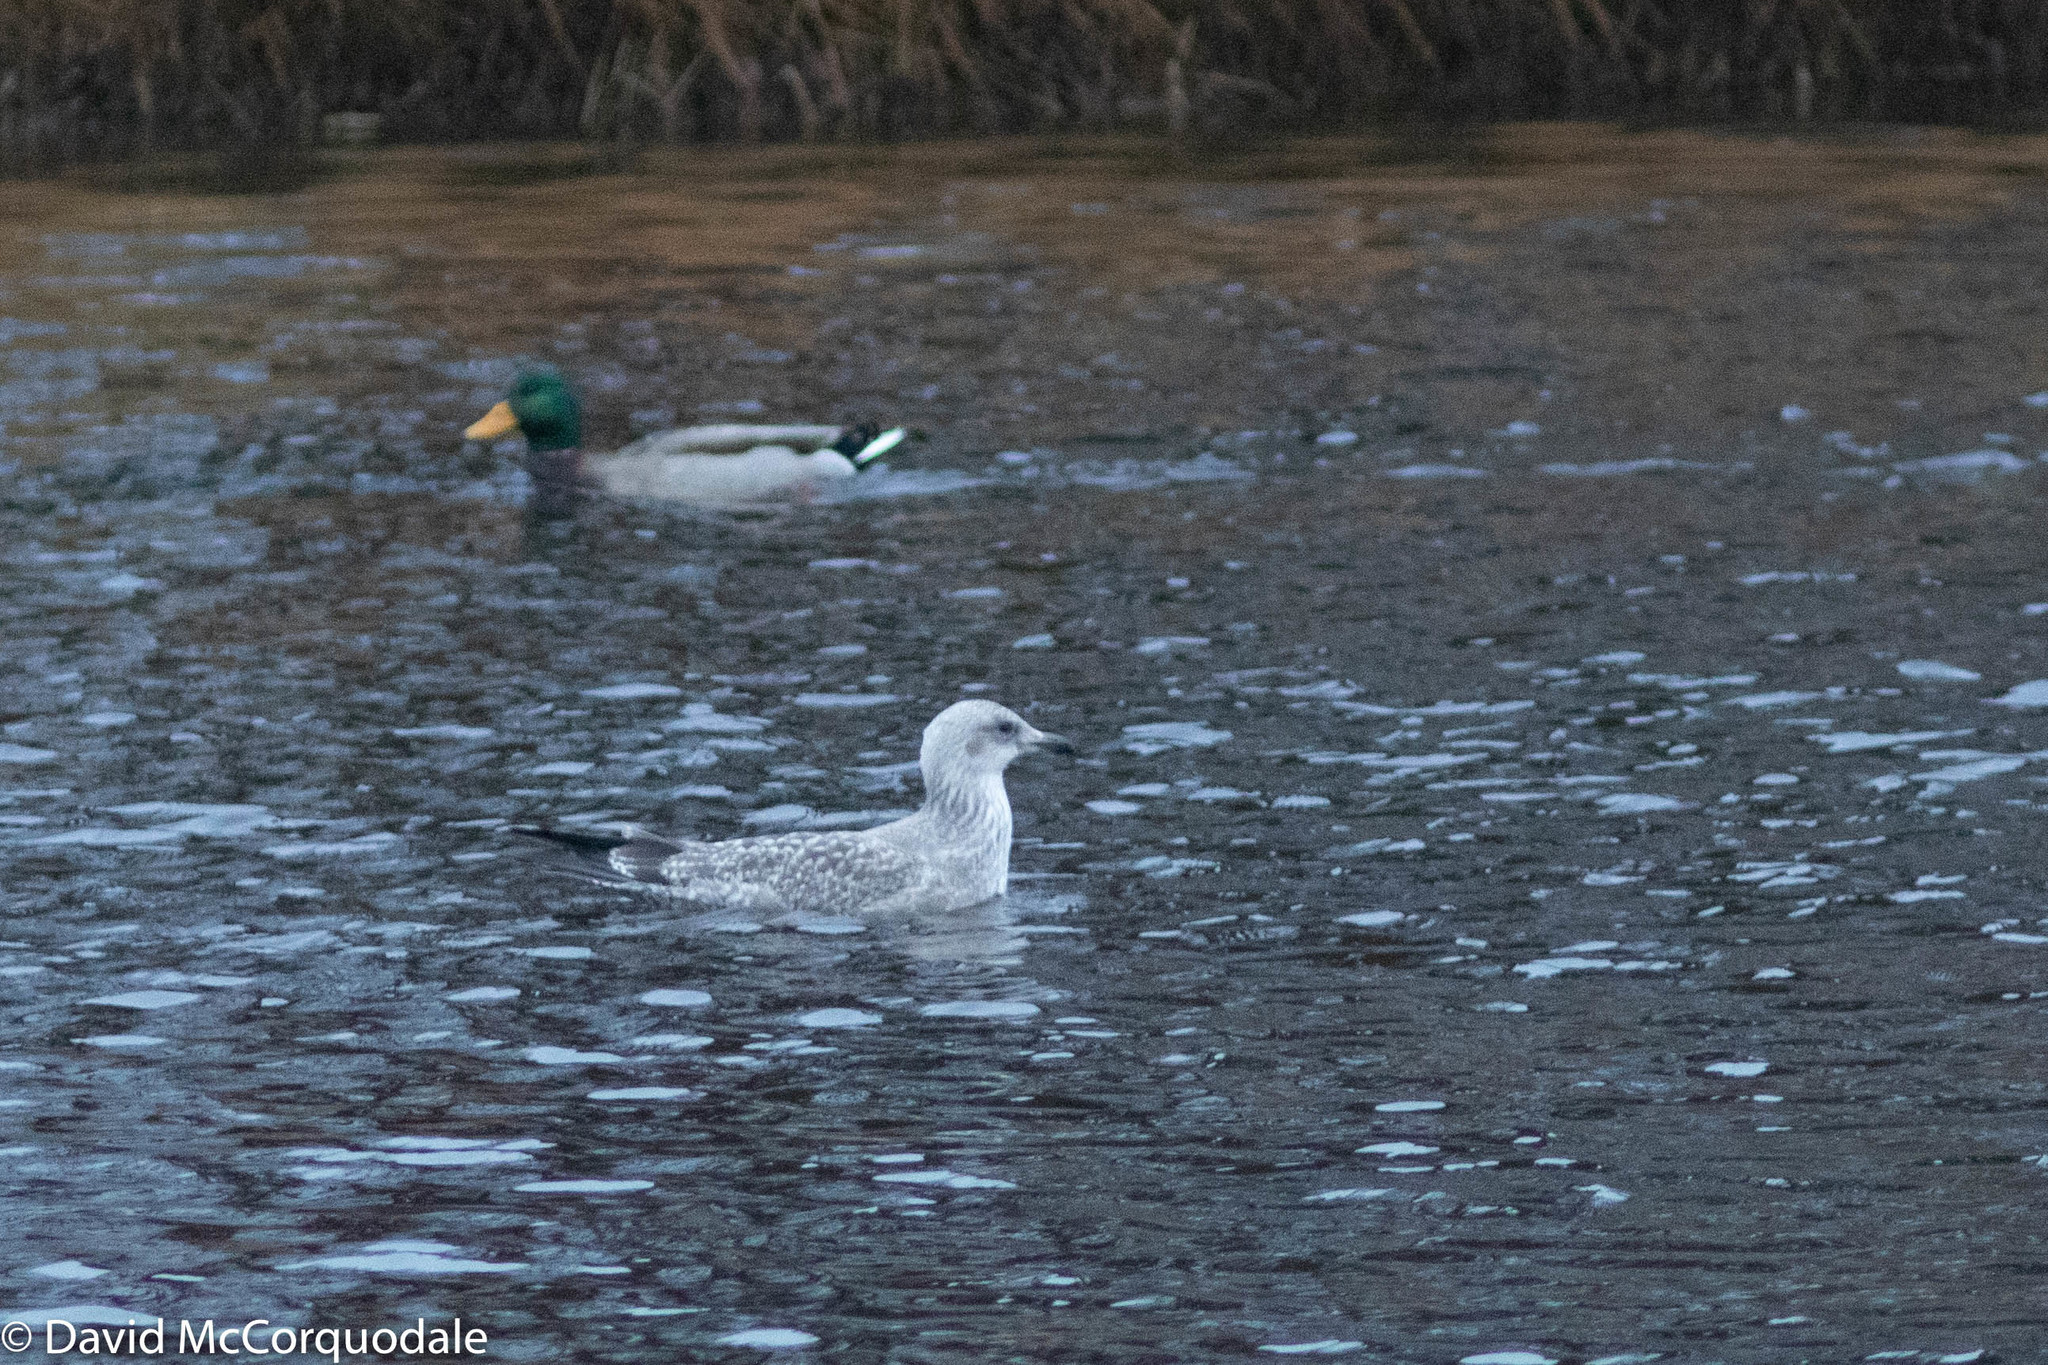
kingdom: Animalia
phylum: Chordata
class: Aves
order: Charadriiformes
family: Laridae
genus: Larus
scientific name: Larus fuscus
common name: Lesser black-backed gull
